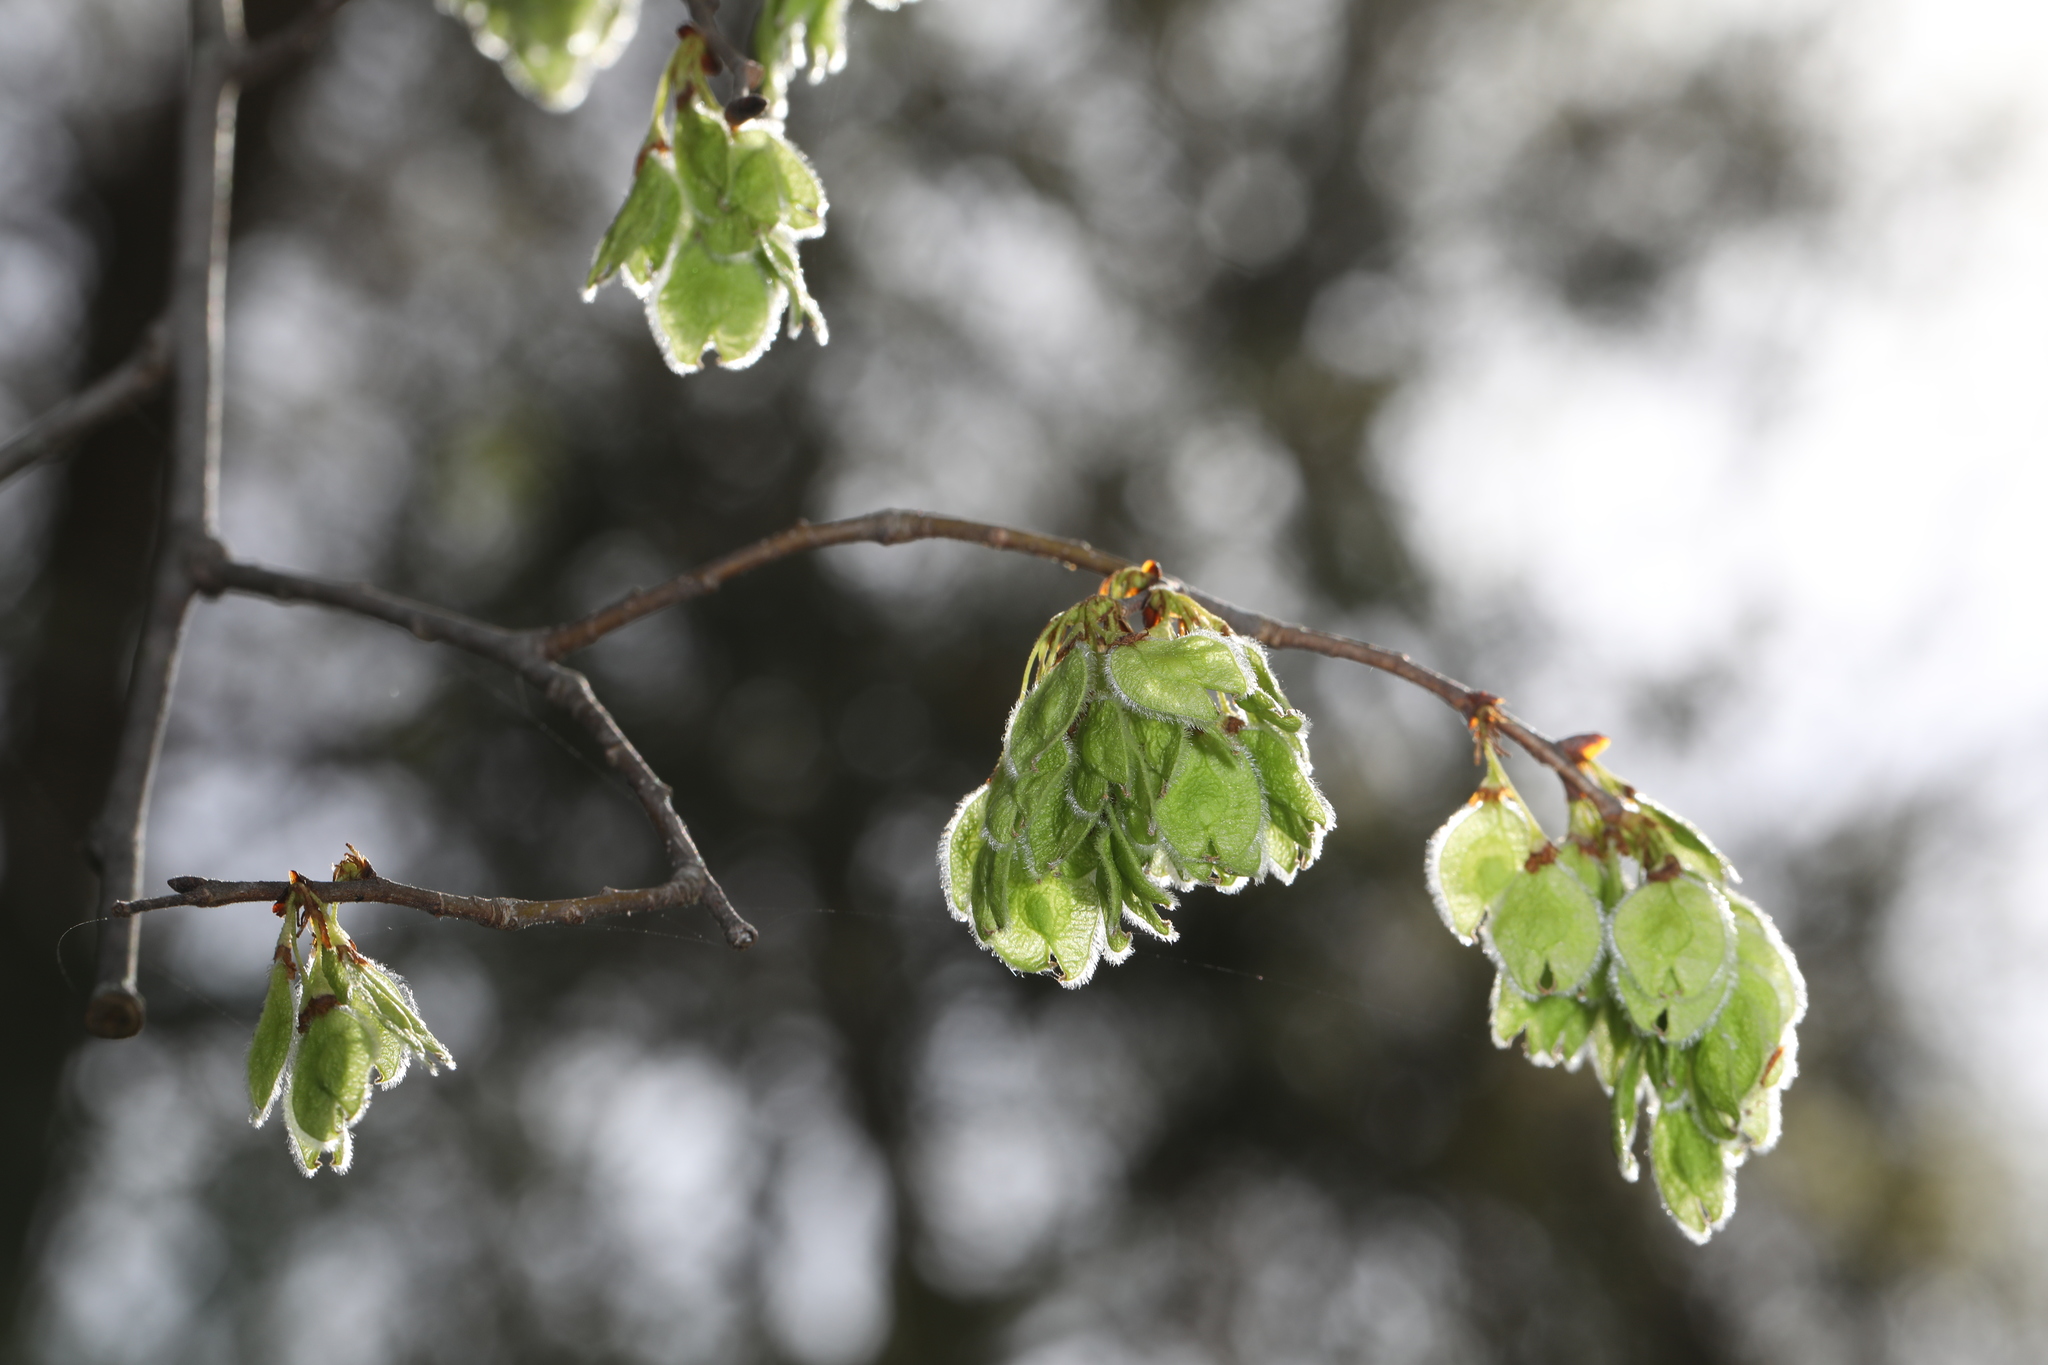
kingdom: Plantae
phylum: Tracheophyta
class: Magnoliopsida
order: Rosales
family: Ulmaceae
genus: Ulmus
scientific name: Ulmus americana
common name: American elm
